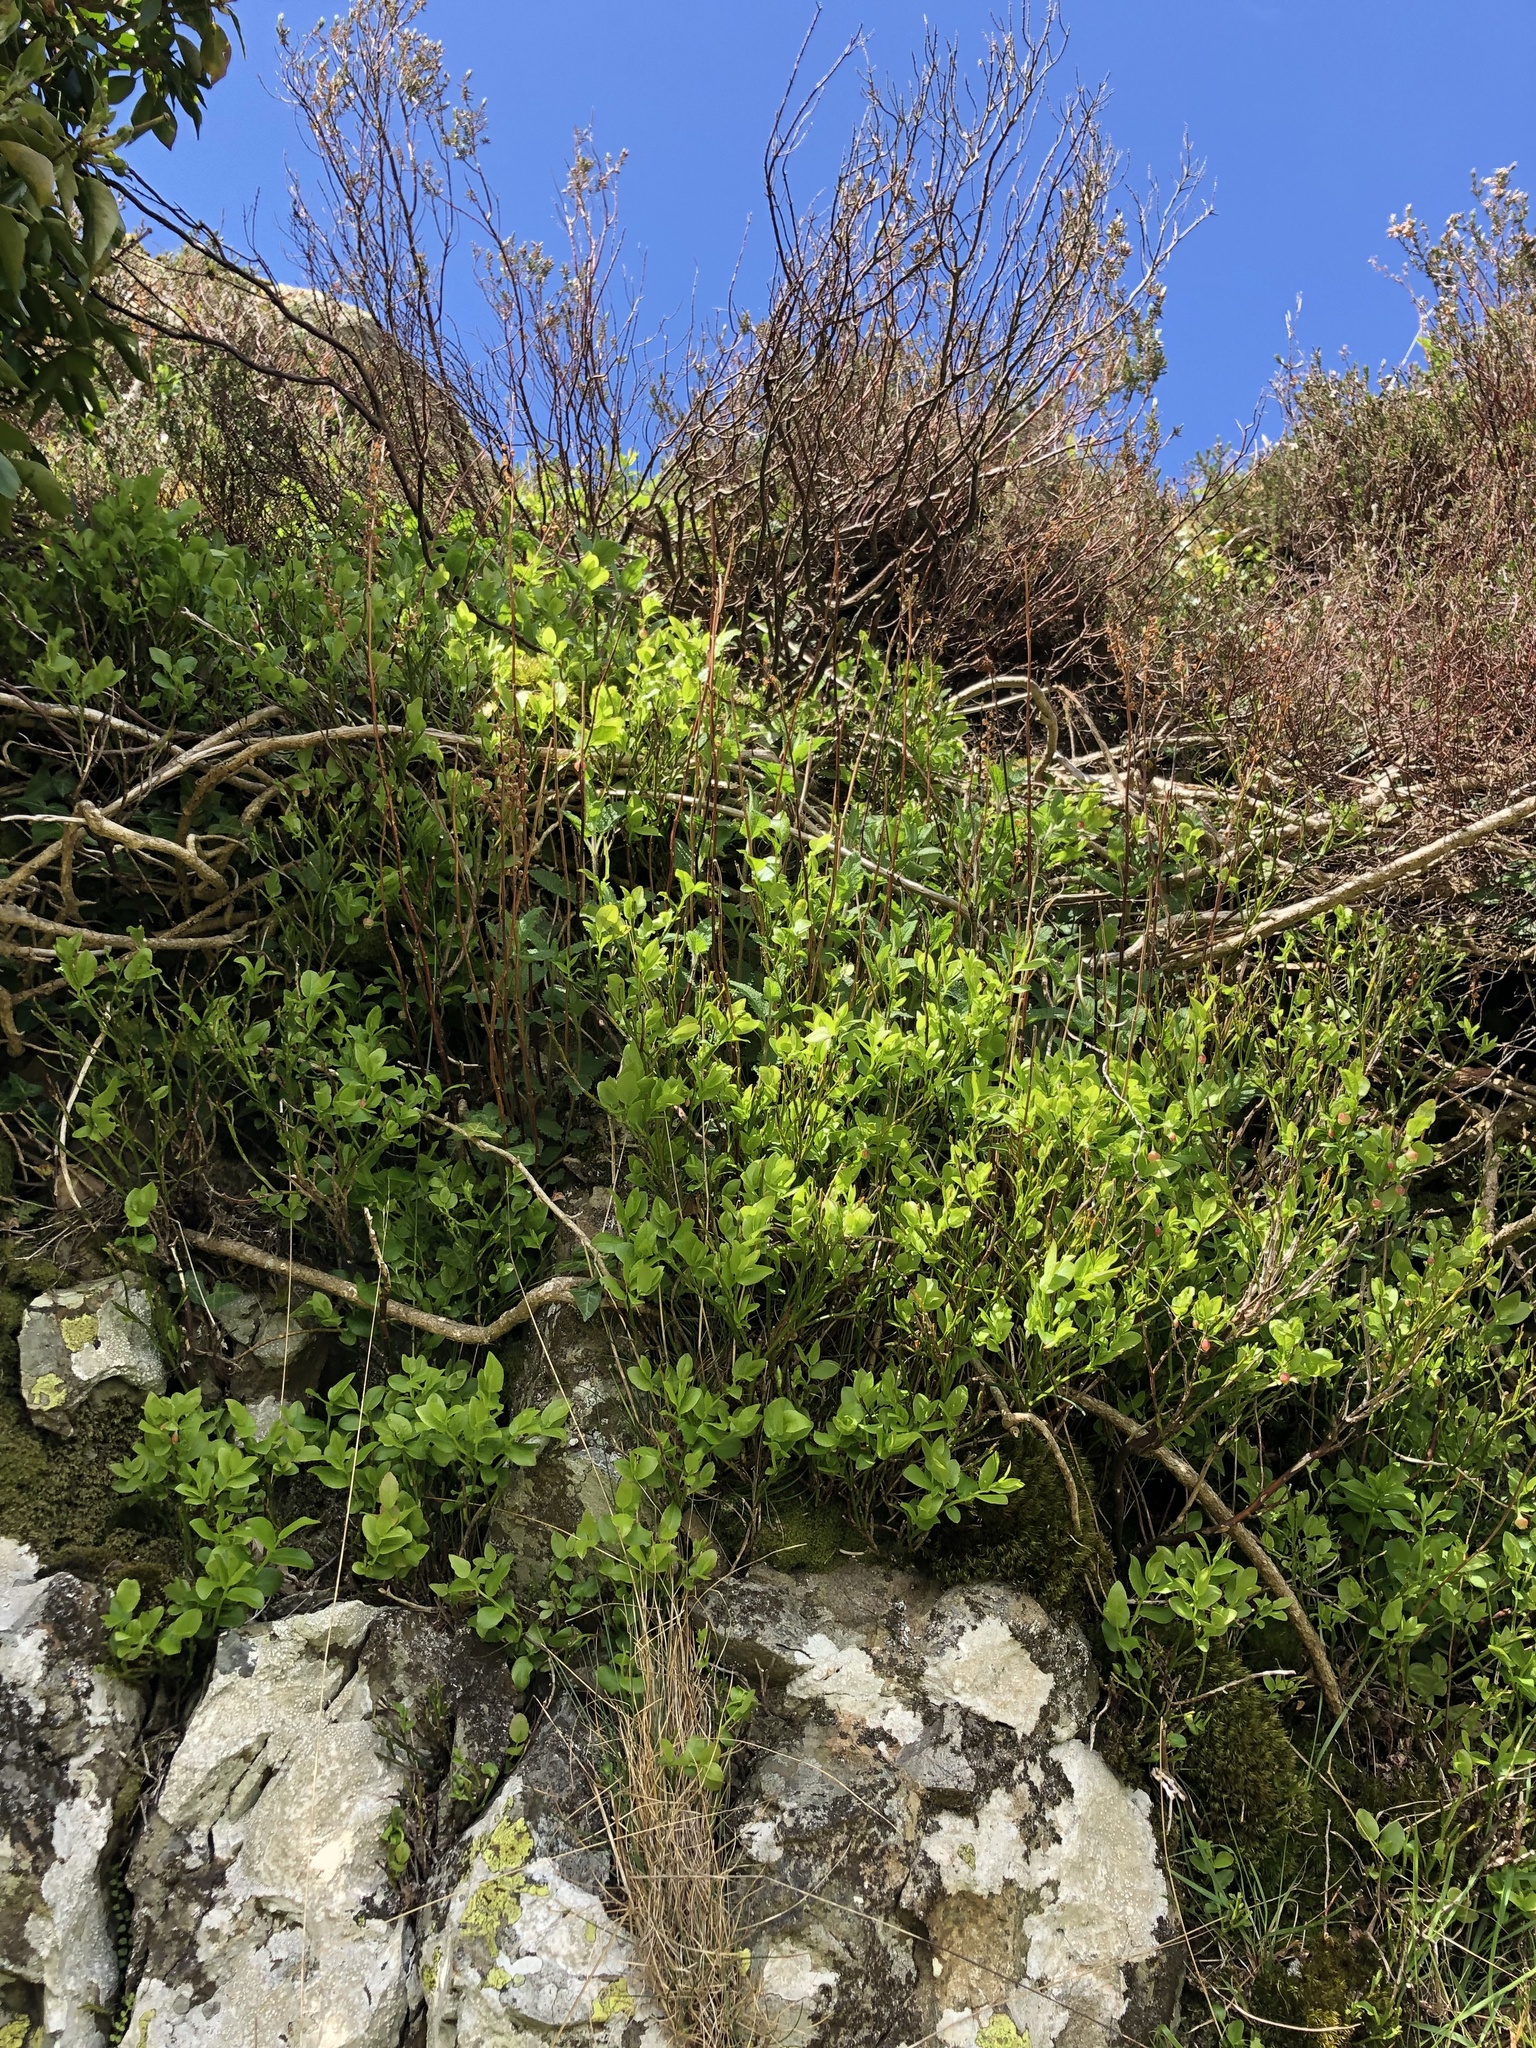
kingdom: Plantae
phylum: Tracheophyta
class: Magnoliopsida
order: Ericales
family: Ericaceae
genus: Vaccinium
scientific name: Vaccinium myrtillus
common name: Bilberry
